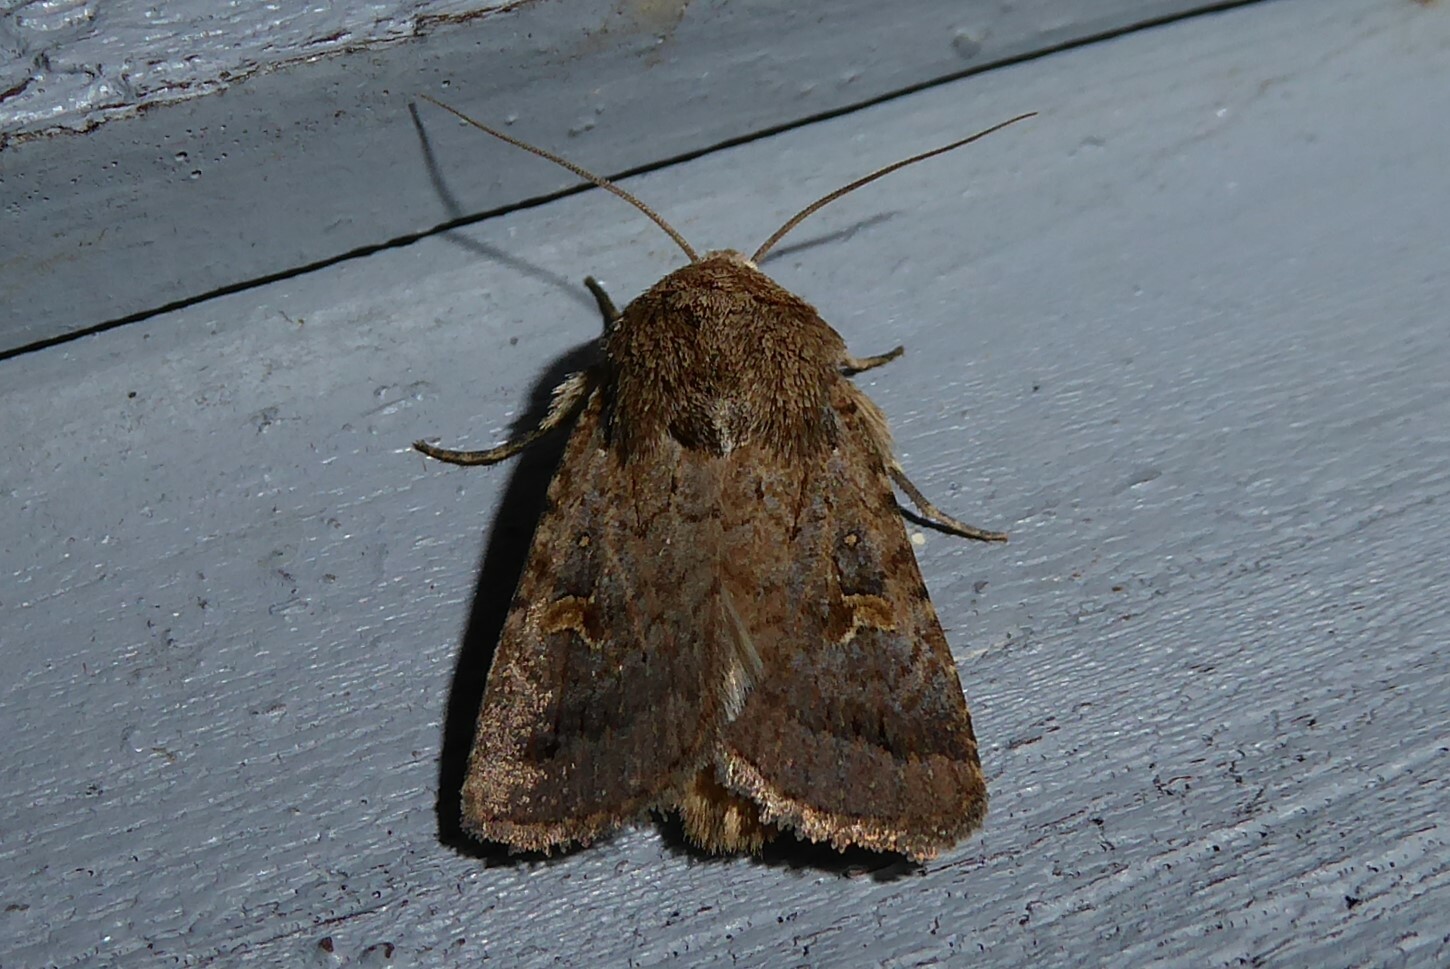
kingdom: Animalia
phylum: Arthropoda
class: Insecta
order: Lepidoptera
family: Noctuidae
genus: Proteuxoa
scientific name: Proteuxoa tetronycha
